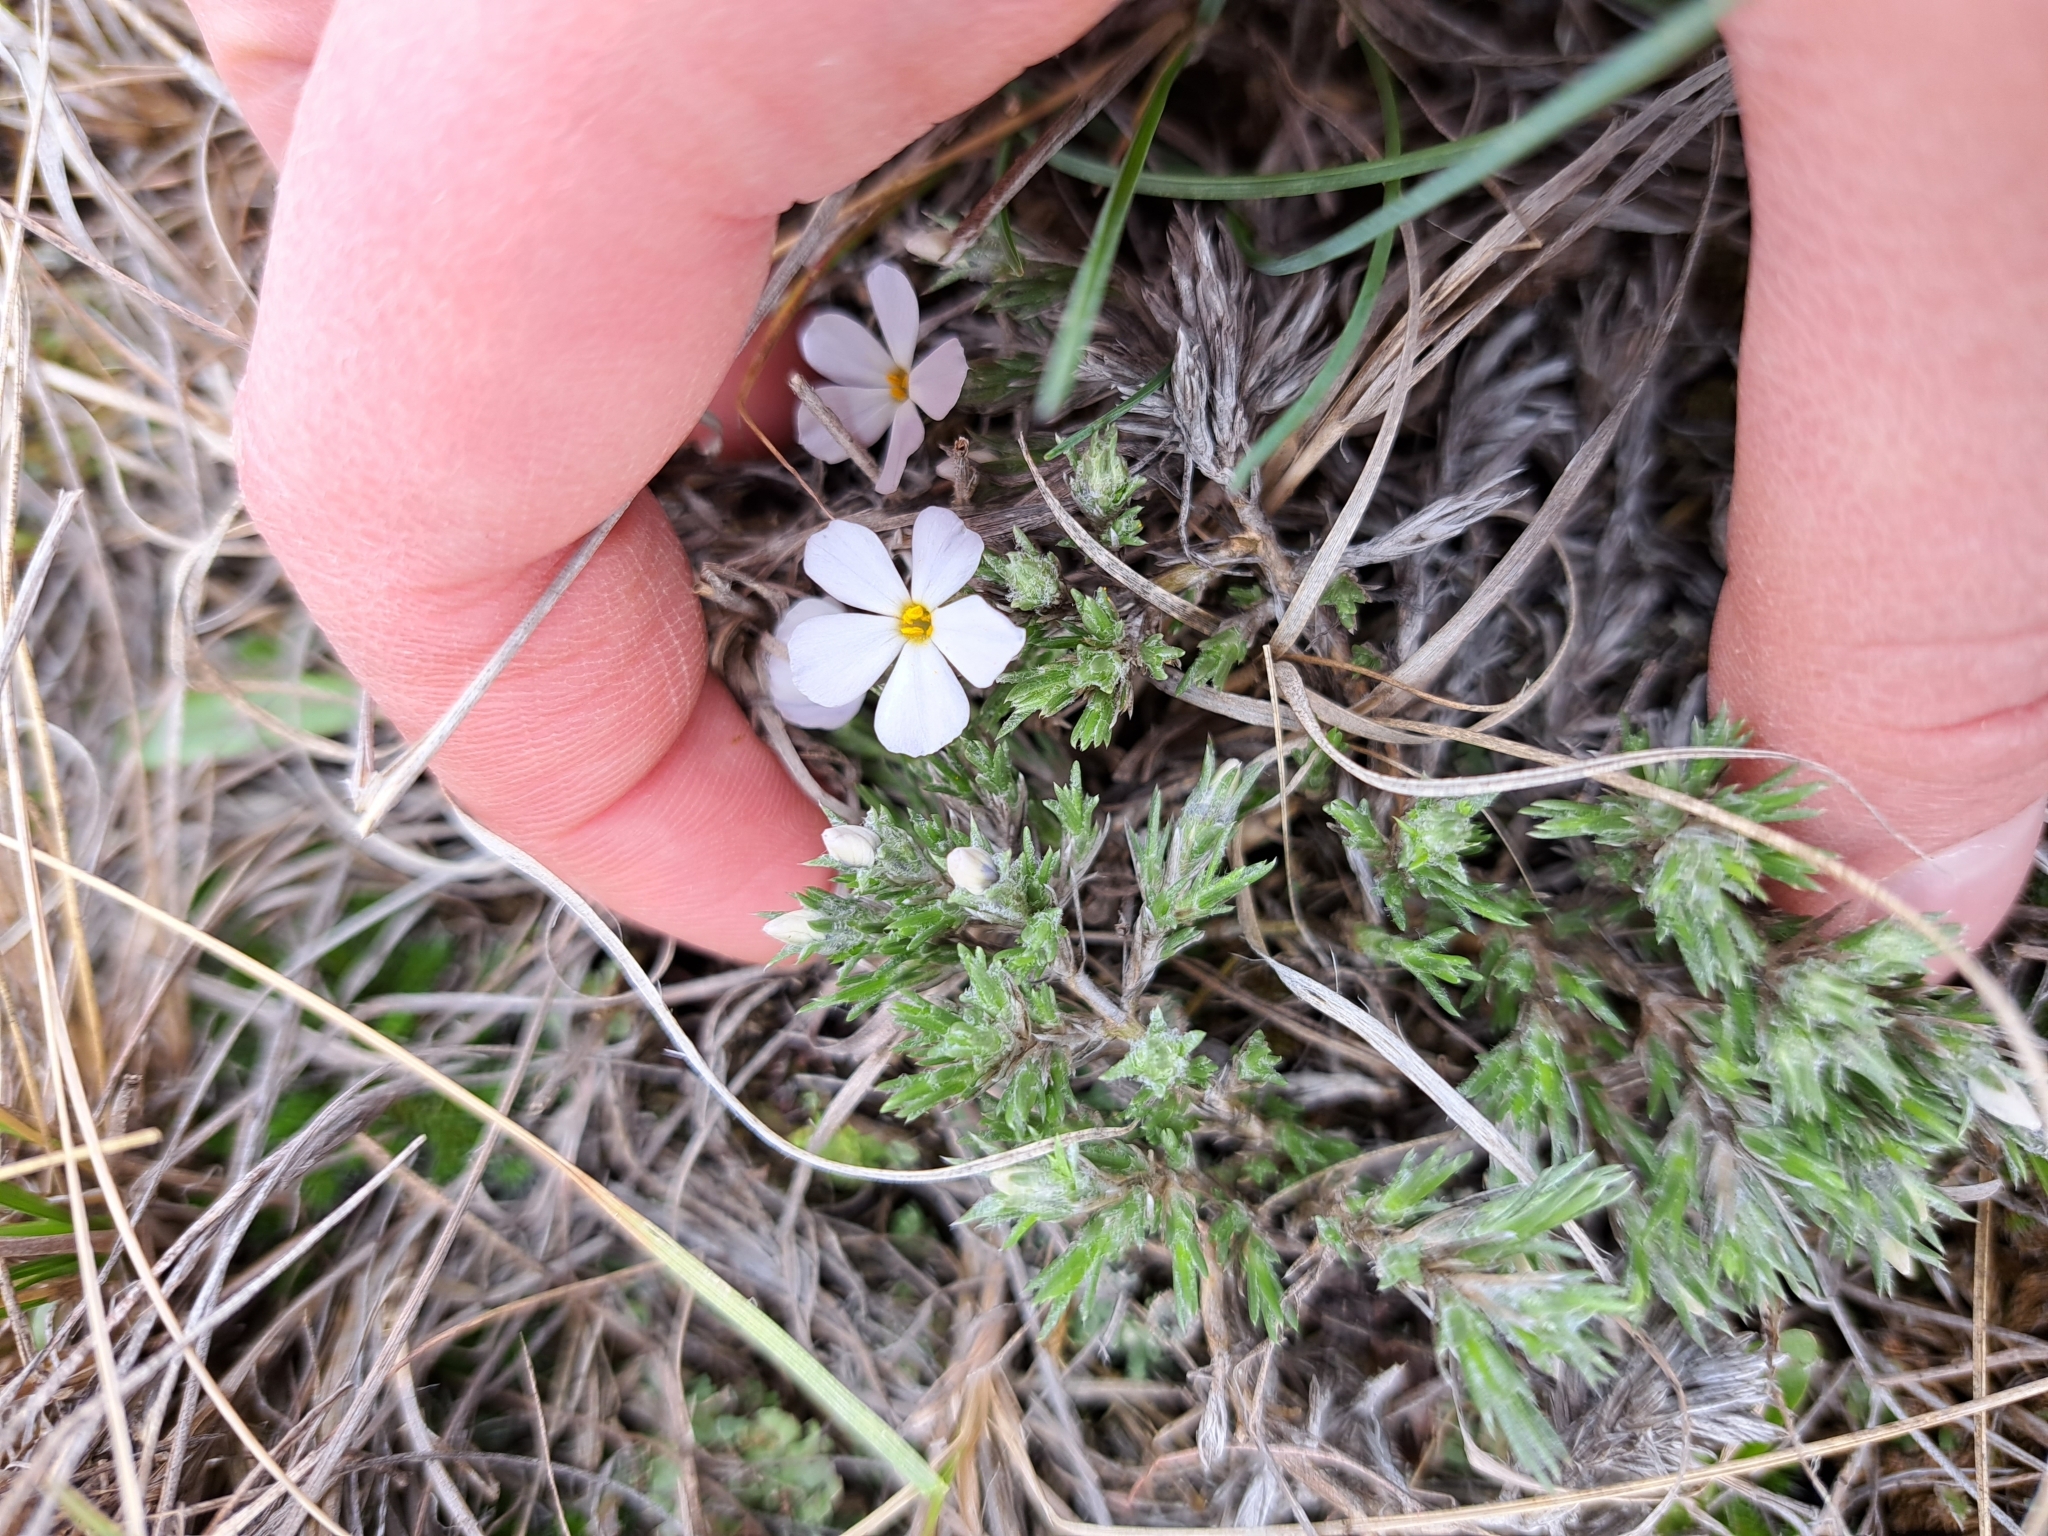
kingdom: Plantae
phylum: Tracheophyta
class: Magnoliopsida
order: Ericales
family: Polemoniaceae
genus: Phlox
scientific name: Phlox hoodii
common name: Moss phlox
